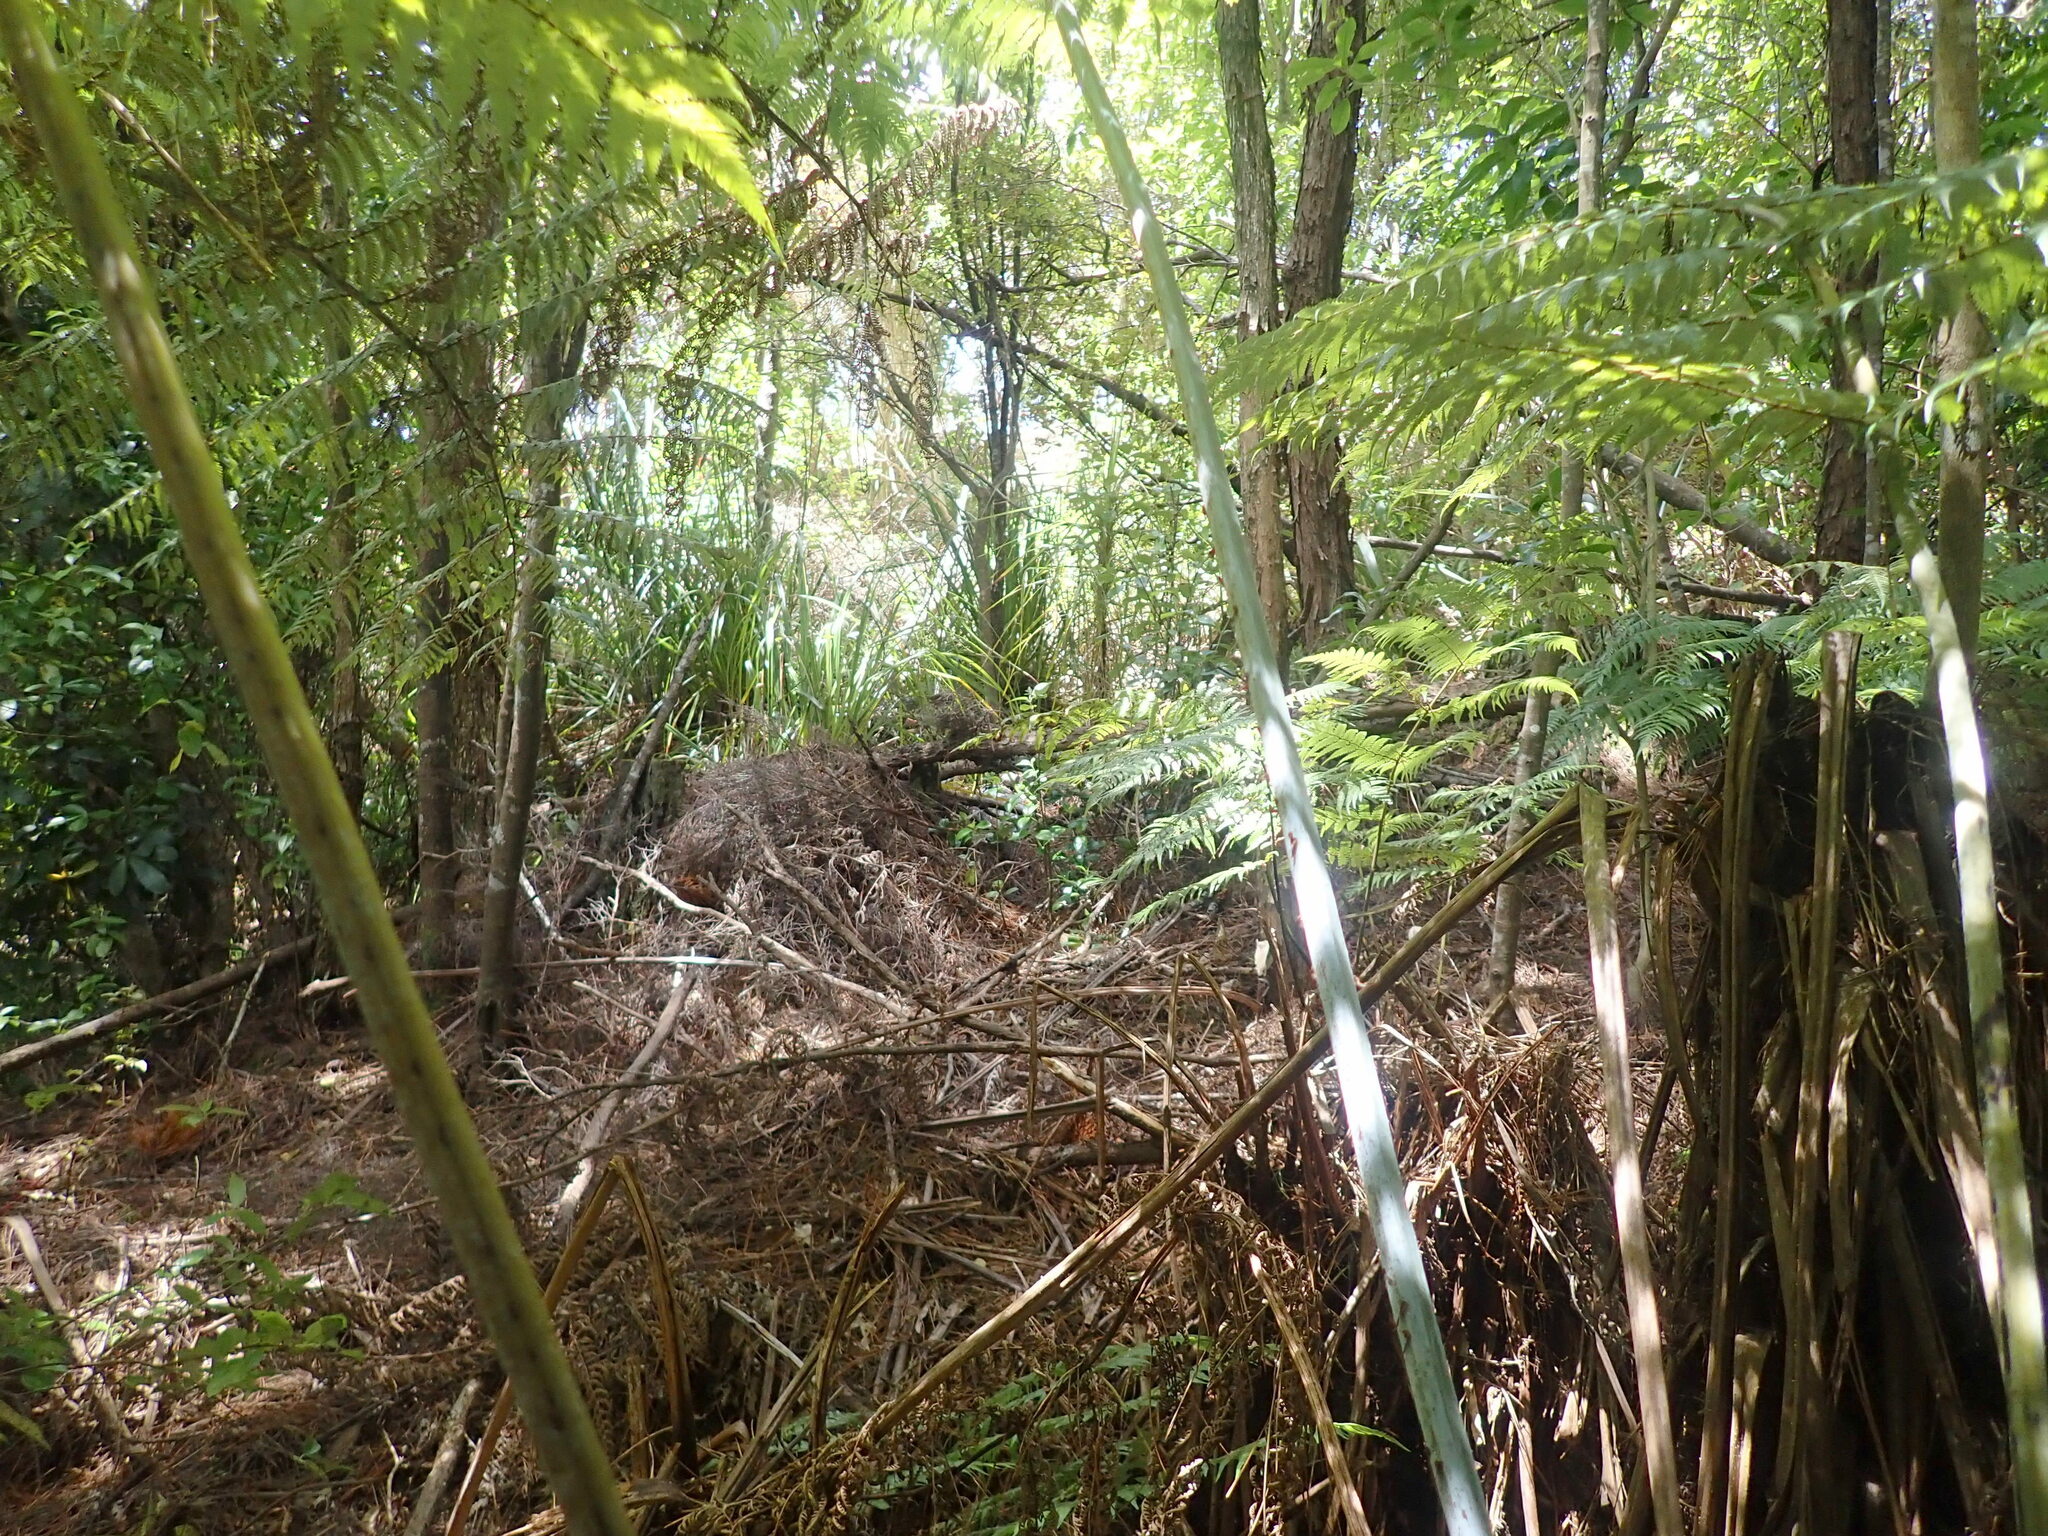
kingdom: Plantae
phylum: Tracheophyta
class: Polypodiopsida
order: Cyatheales
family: Cyatheaceae
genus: Alsophila
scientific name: Alsophila dealbata
